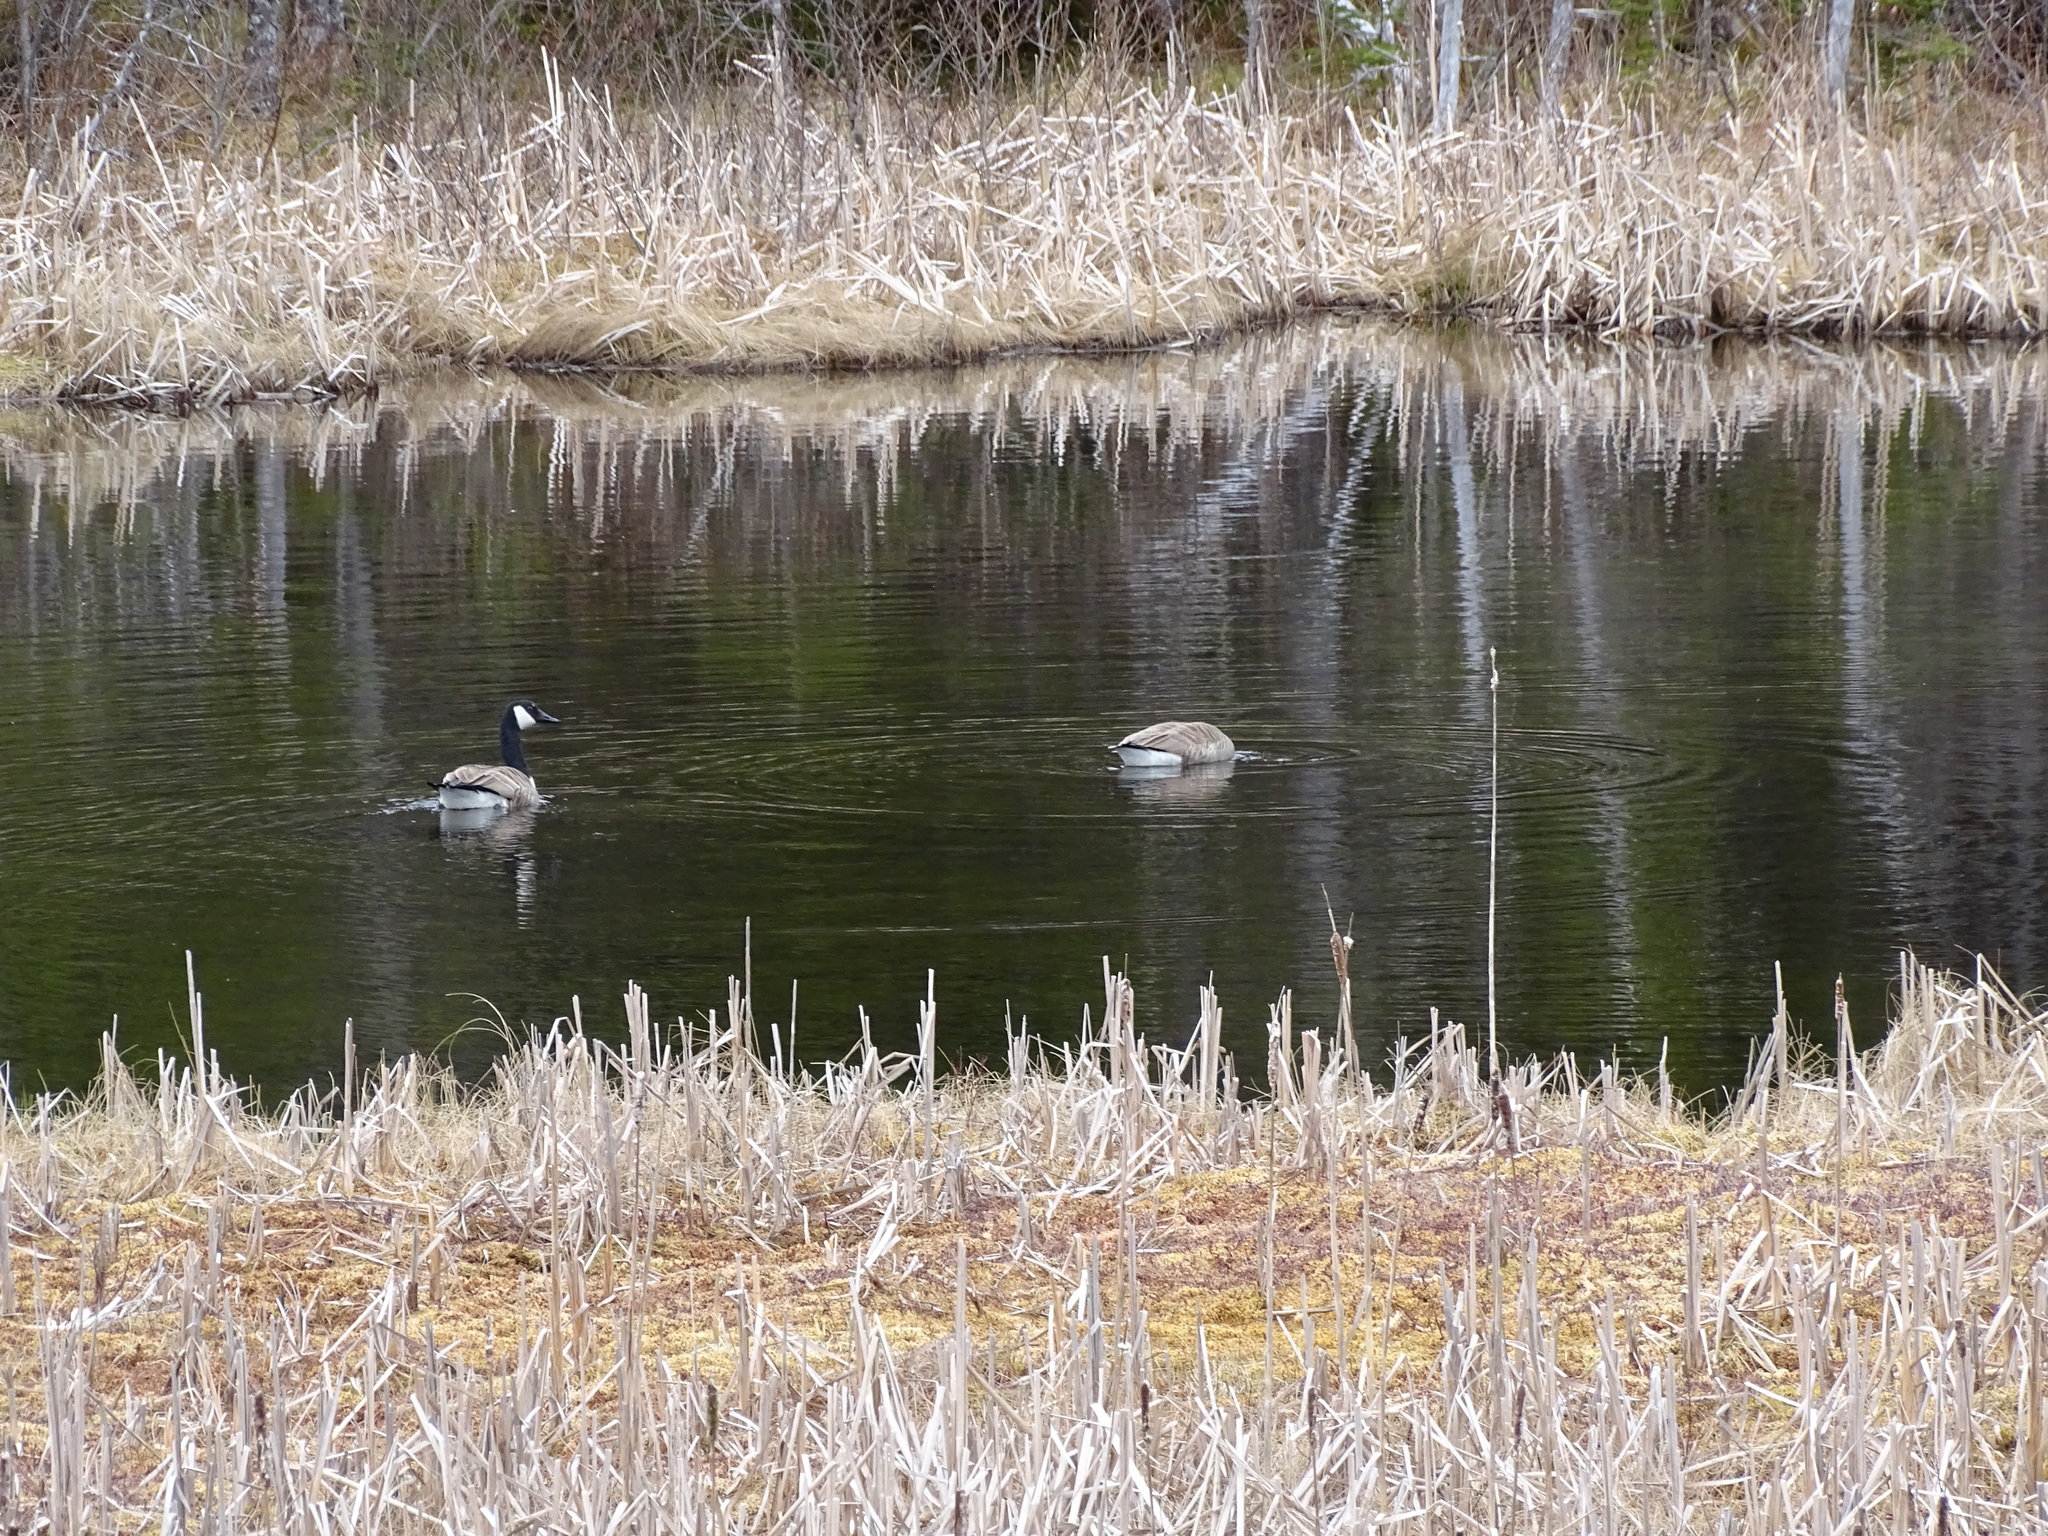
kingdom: Animalia
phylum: Chordata
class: Aves
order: Anseriformes
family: Anatidae
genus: Branta
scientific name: Branta canadensis
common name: Canada goose
